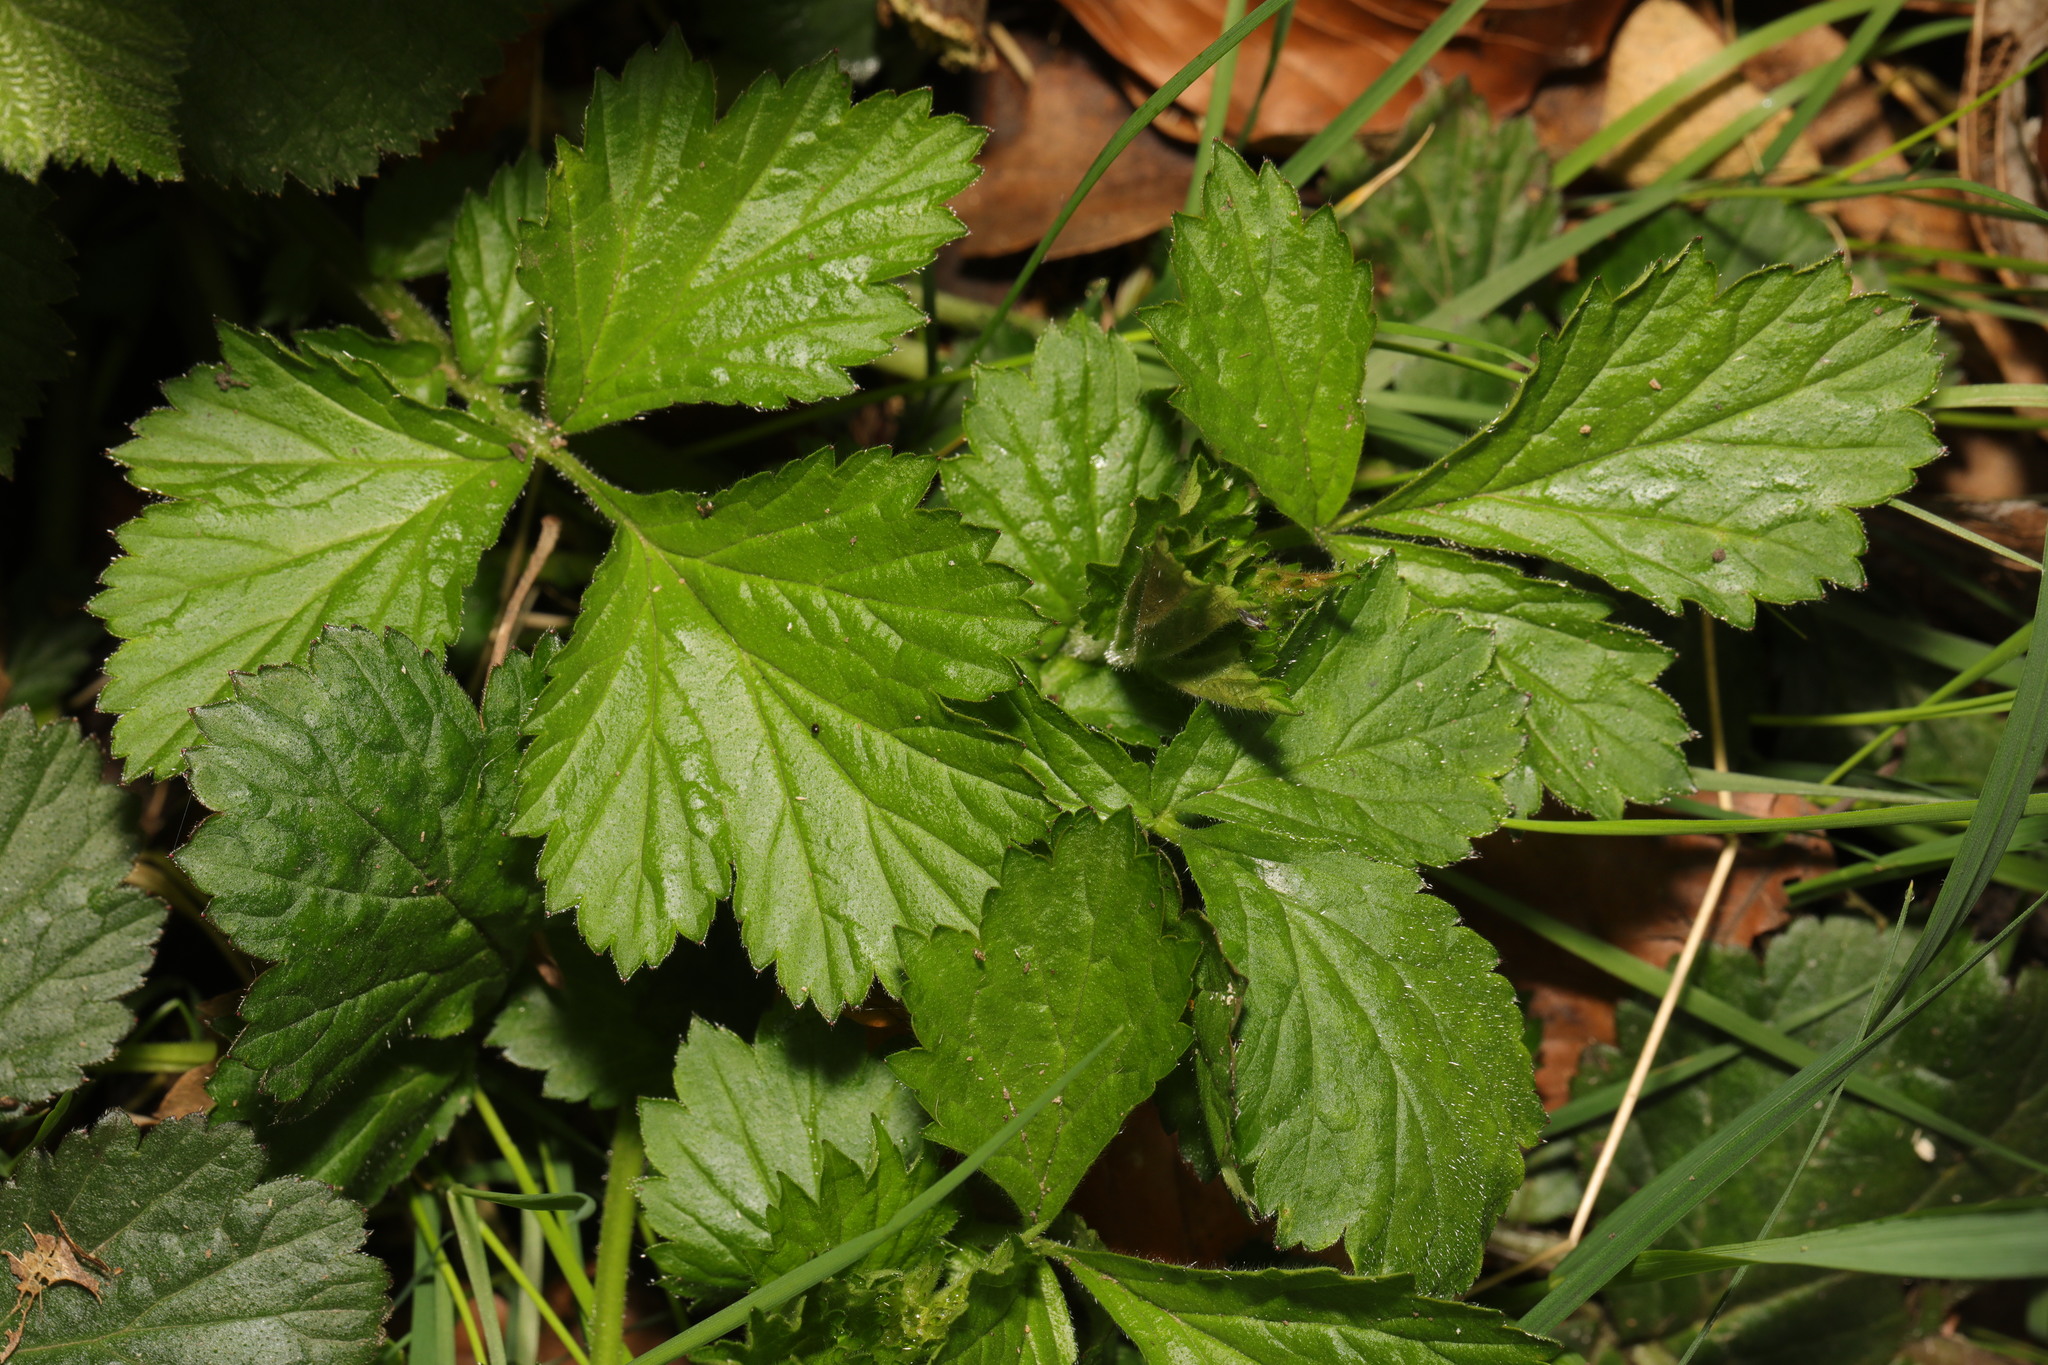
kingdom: Plantae
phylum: Tracheophyta
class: Magnoliopsida
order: Rosales
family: Rosaceae
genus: Geum
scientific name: Geum urbanum
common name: Wood avens
